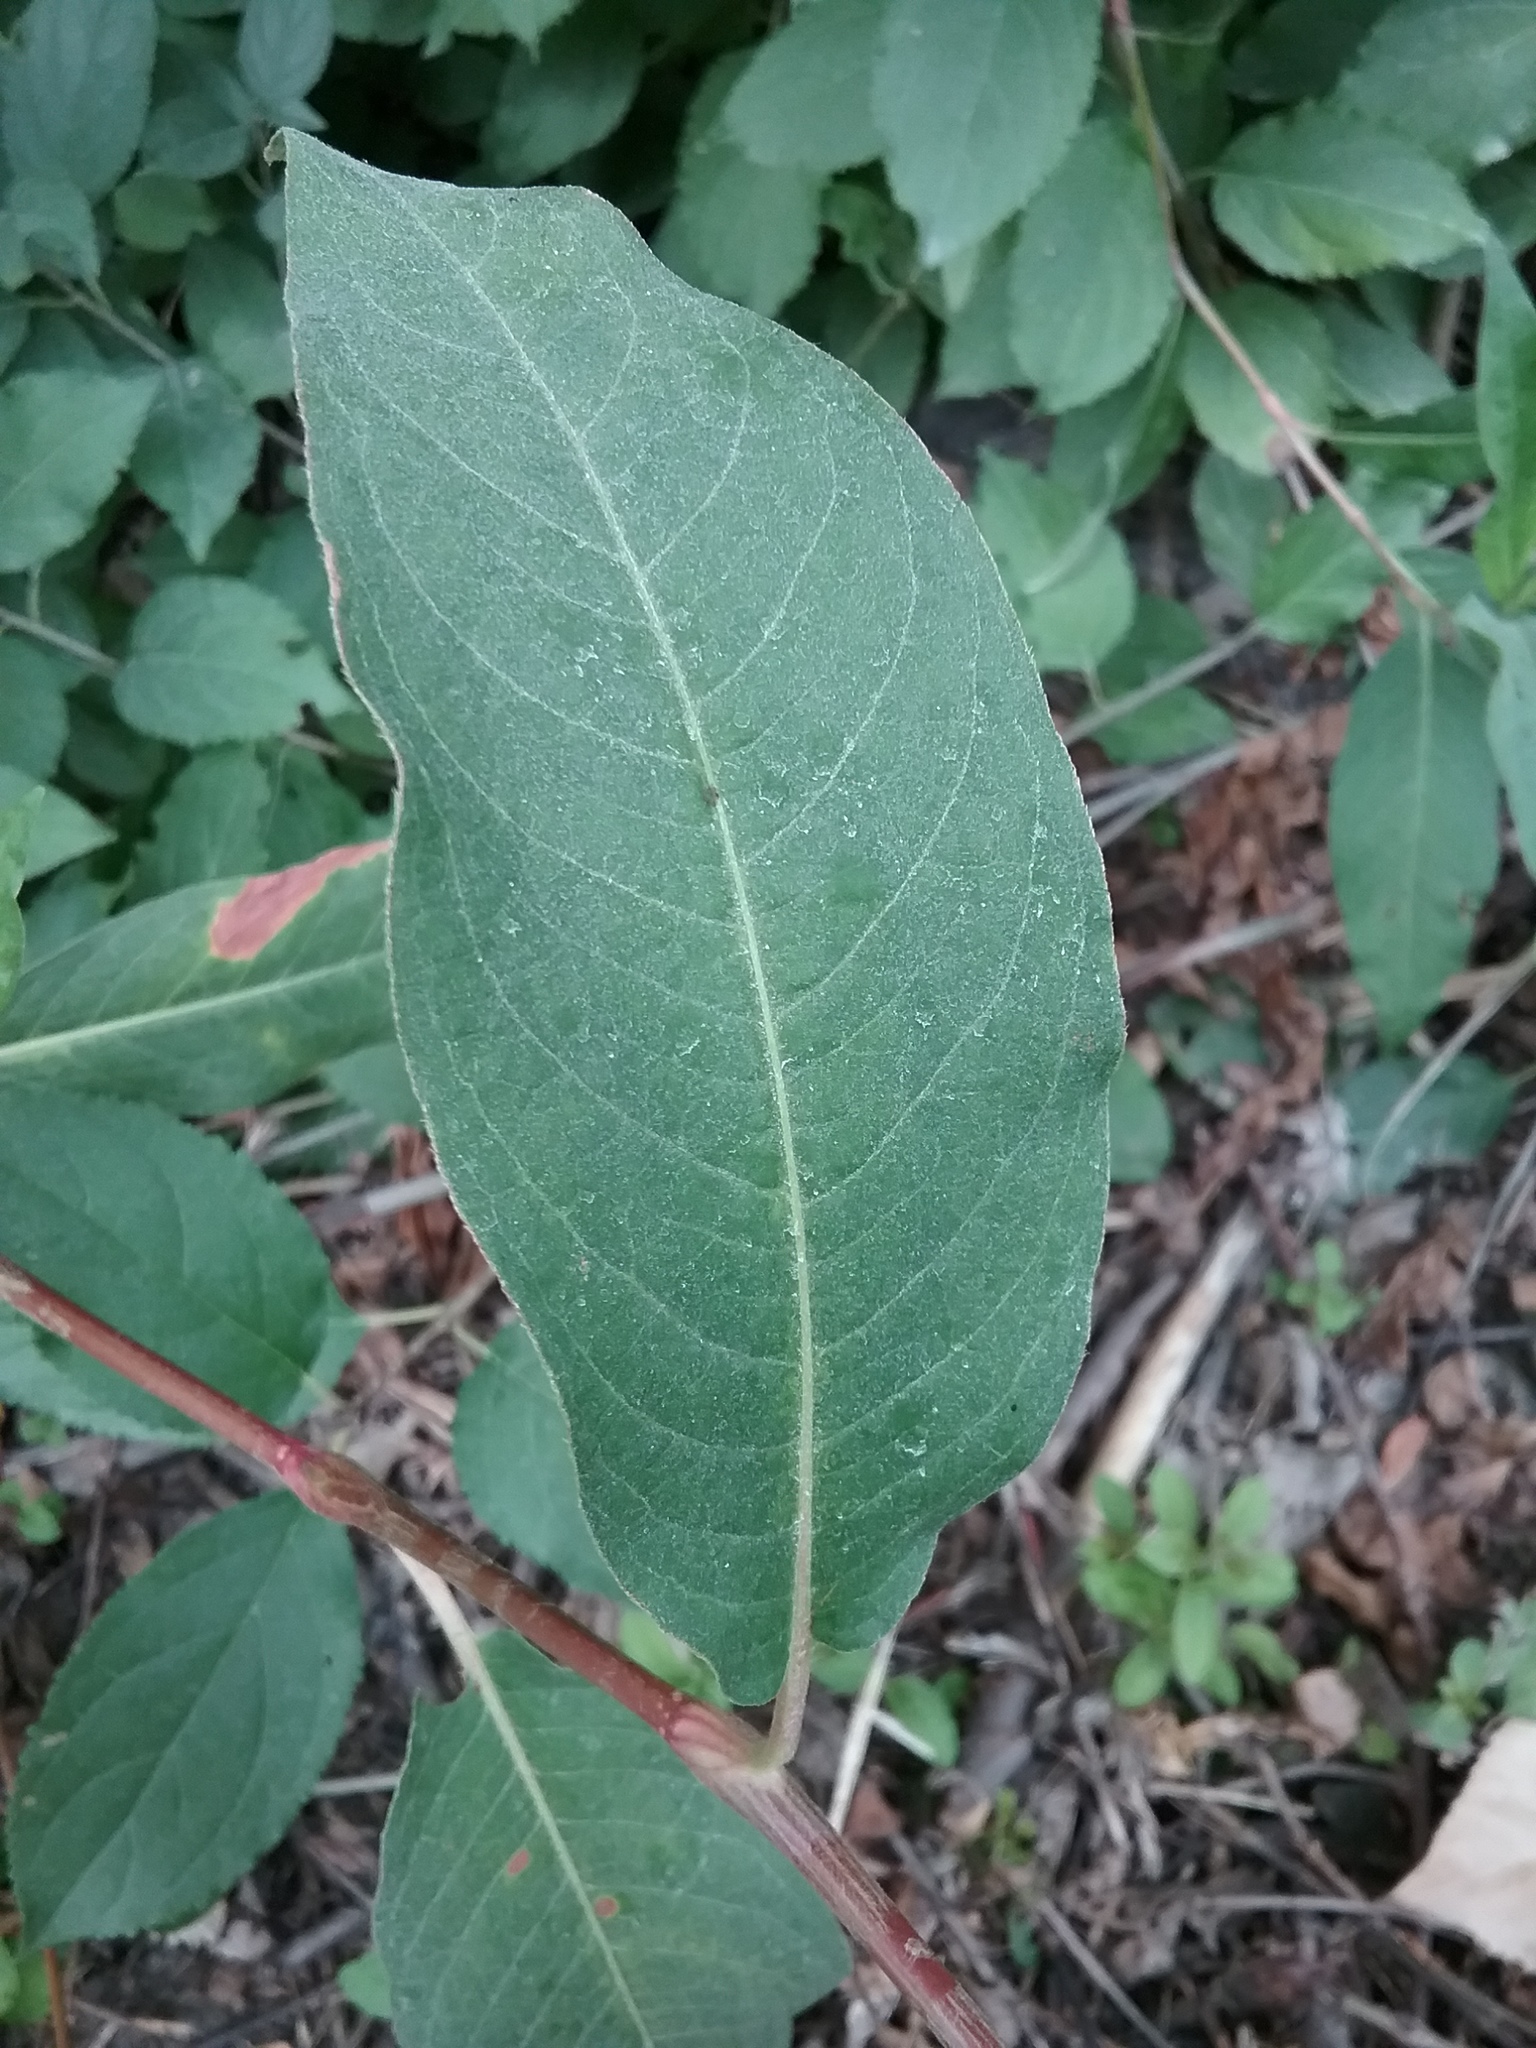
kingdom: Plantae
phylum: Tracheophyta
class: Magnoliopsida
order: Caryophyllales
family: Polygonaceae
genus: Persicaria
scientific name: Persicaria amphibia
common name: Amphibious bistort
